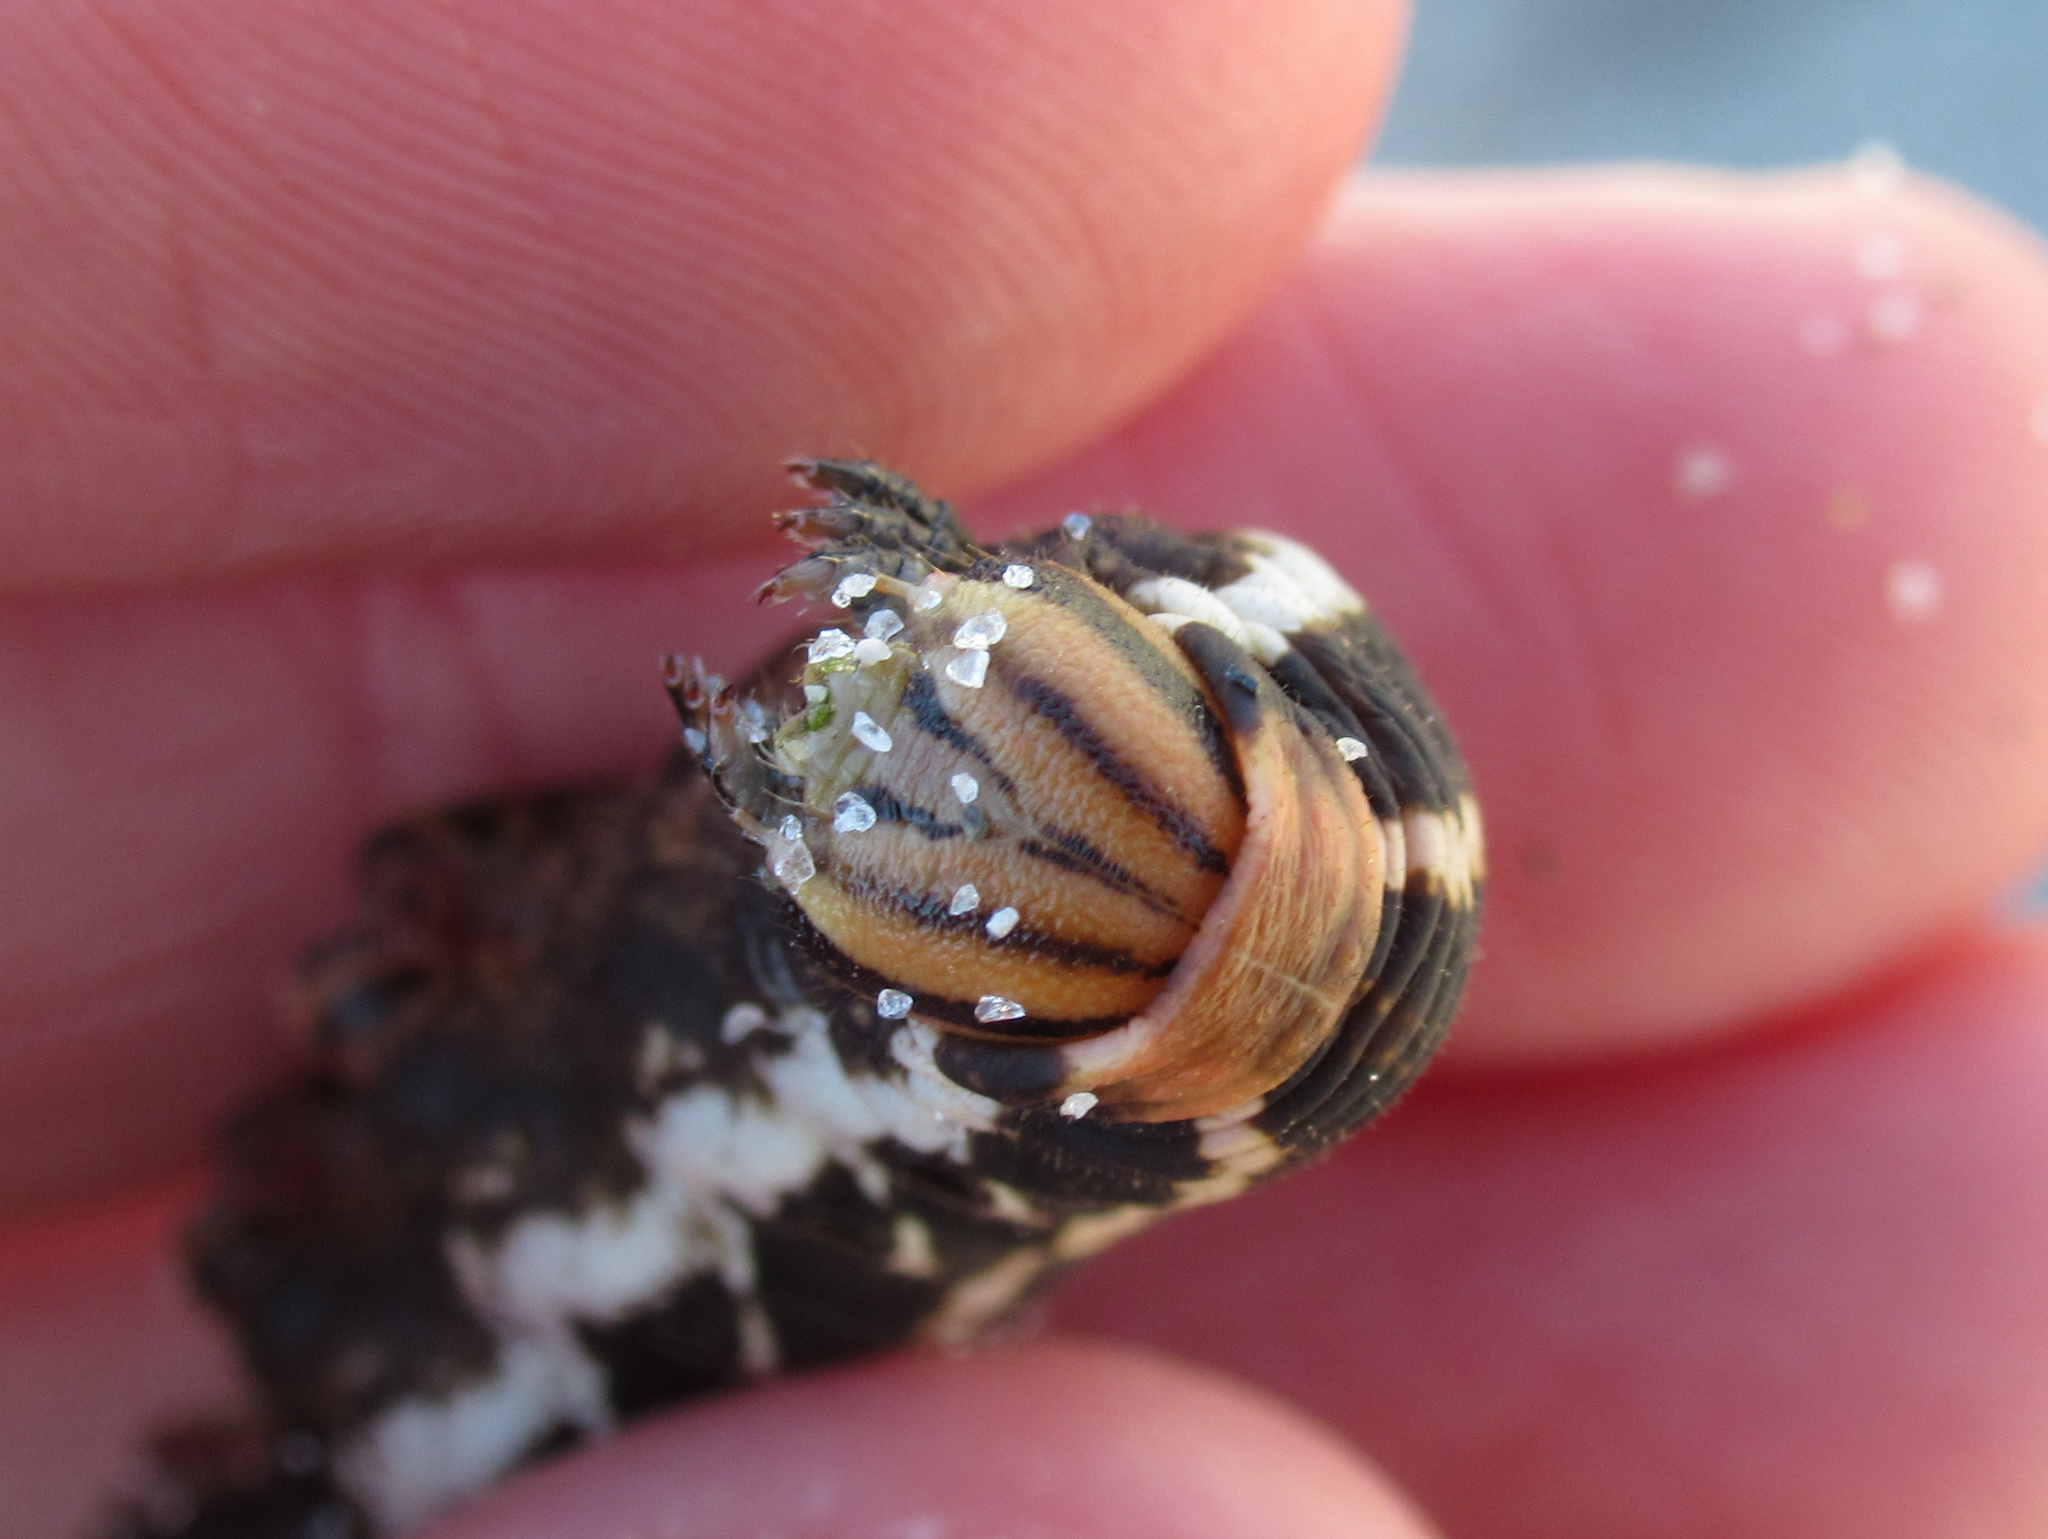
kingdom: Animalia
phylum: Arthropoda
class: Insecta
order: Lepidoptera
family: Sphingidae
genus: Agrius
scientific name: Agrius convolvuli
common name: Convolvulus hawkmoth
